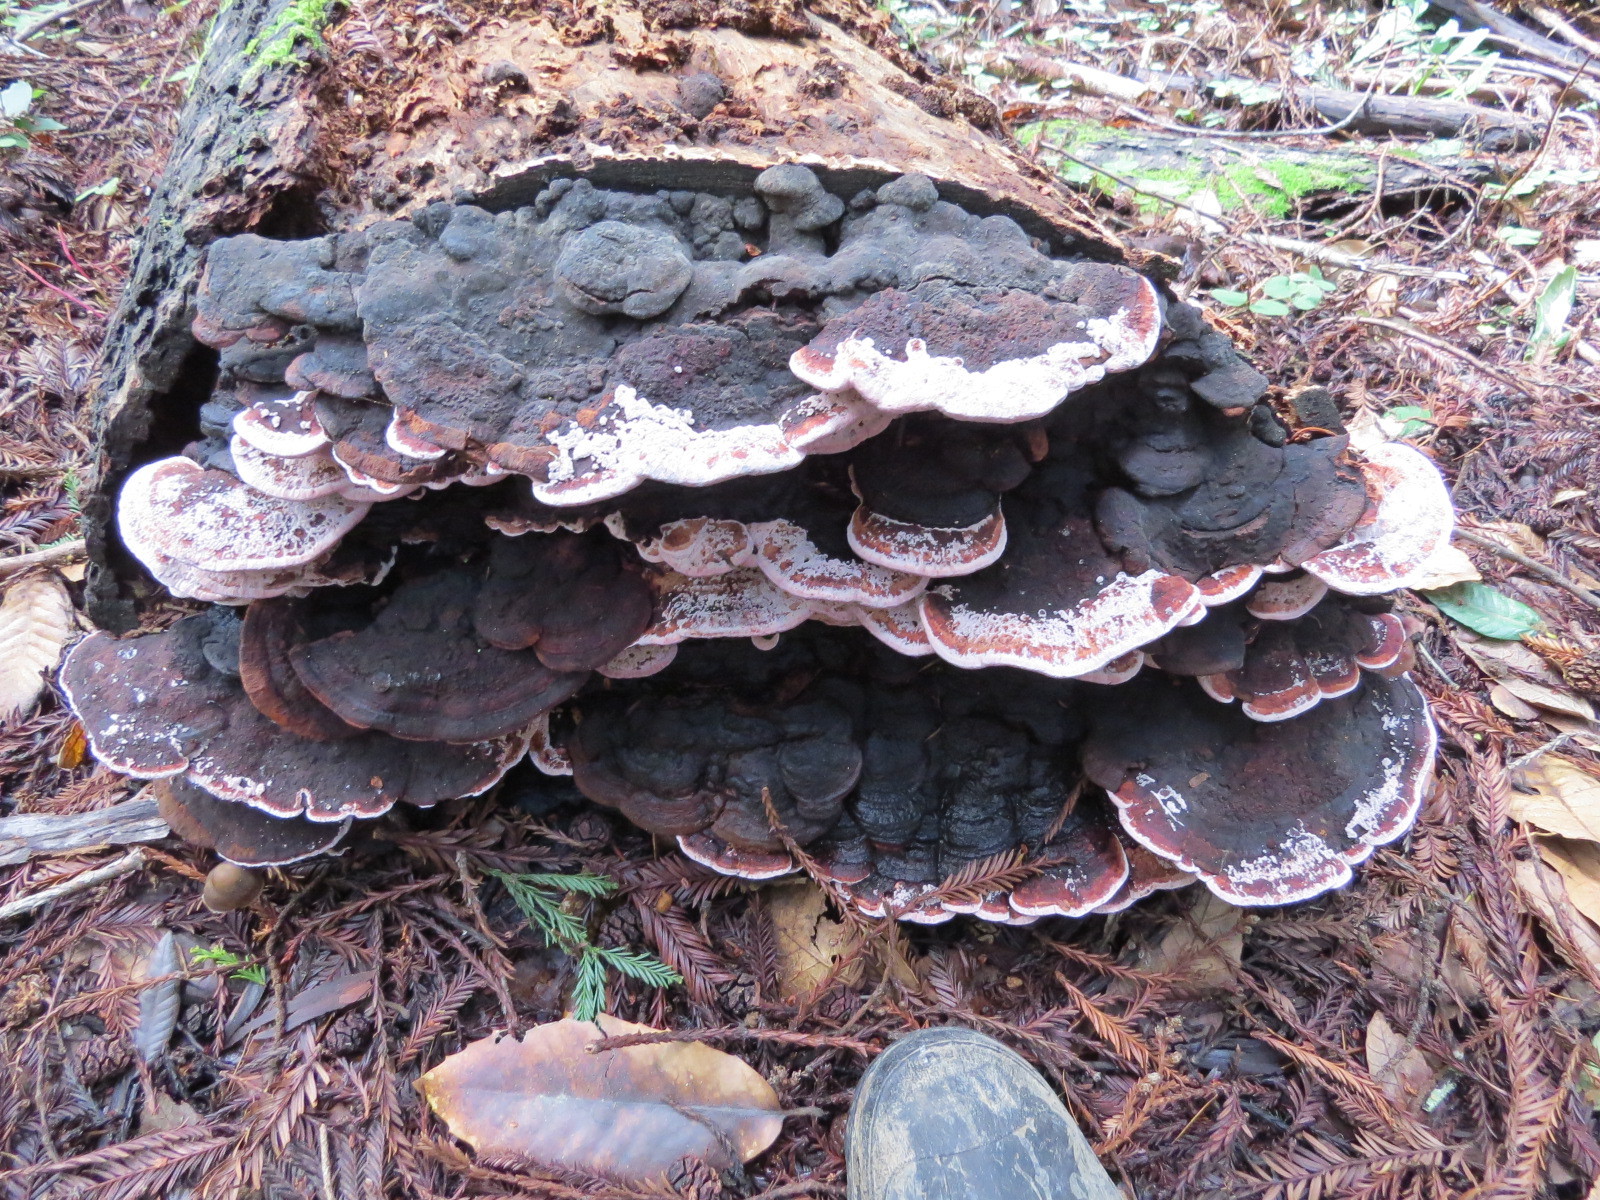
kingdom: Fungi
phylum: Basidiomycota
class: Agaricomycetes
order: Polyporales
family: Fomitopsidaceae
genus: Rhodofomes
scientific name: Rhodofomes cajanderi
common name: Rosy conk
